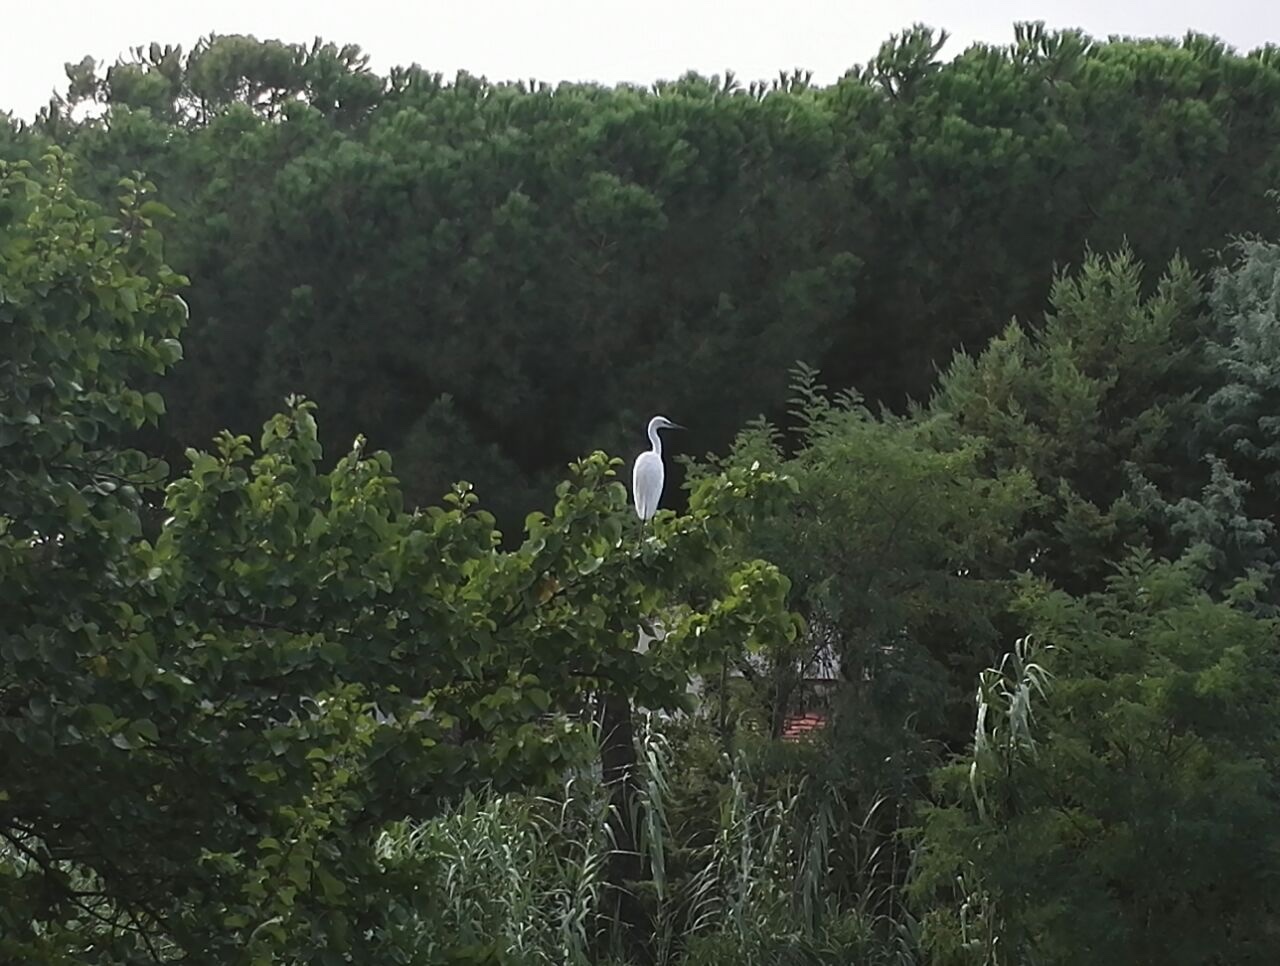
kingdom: Animalia
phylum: Chordata
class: Aves
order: Pelecaniformes
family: Ardeidae
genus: Egretta
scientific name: Egretta garzetta
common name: Little egret
